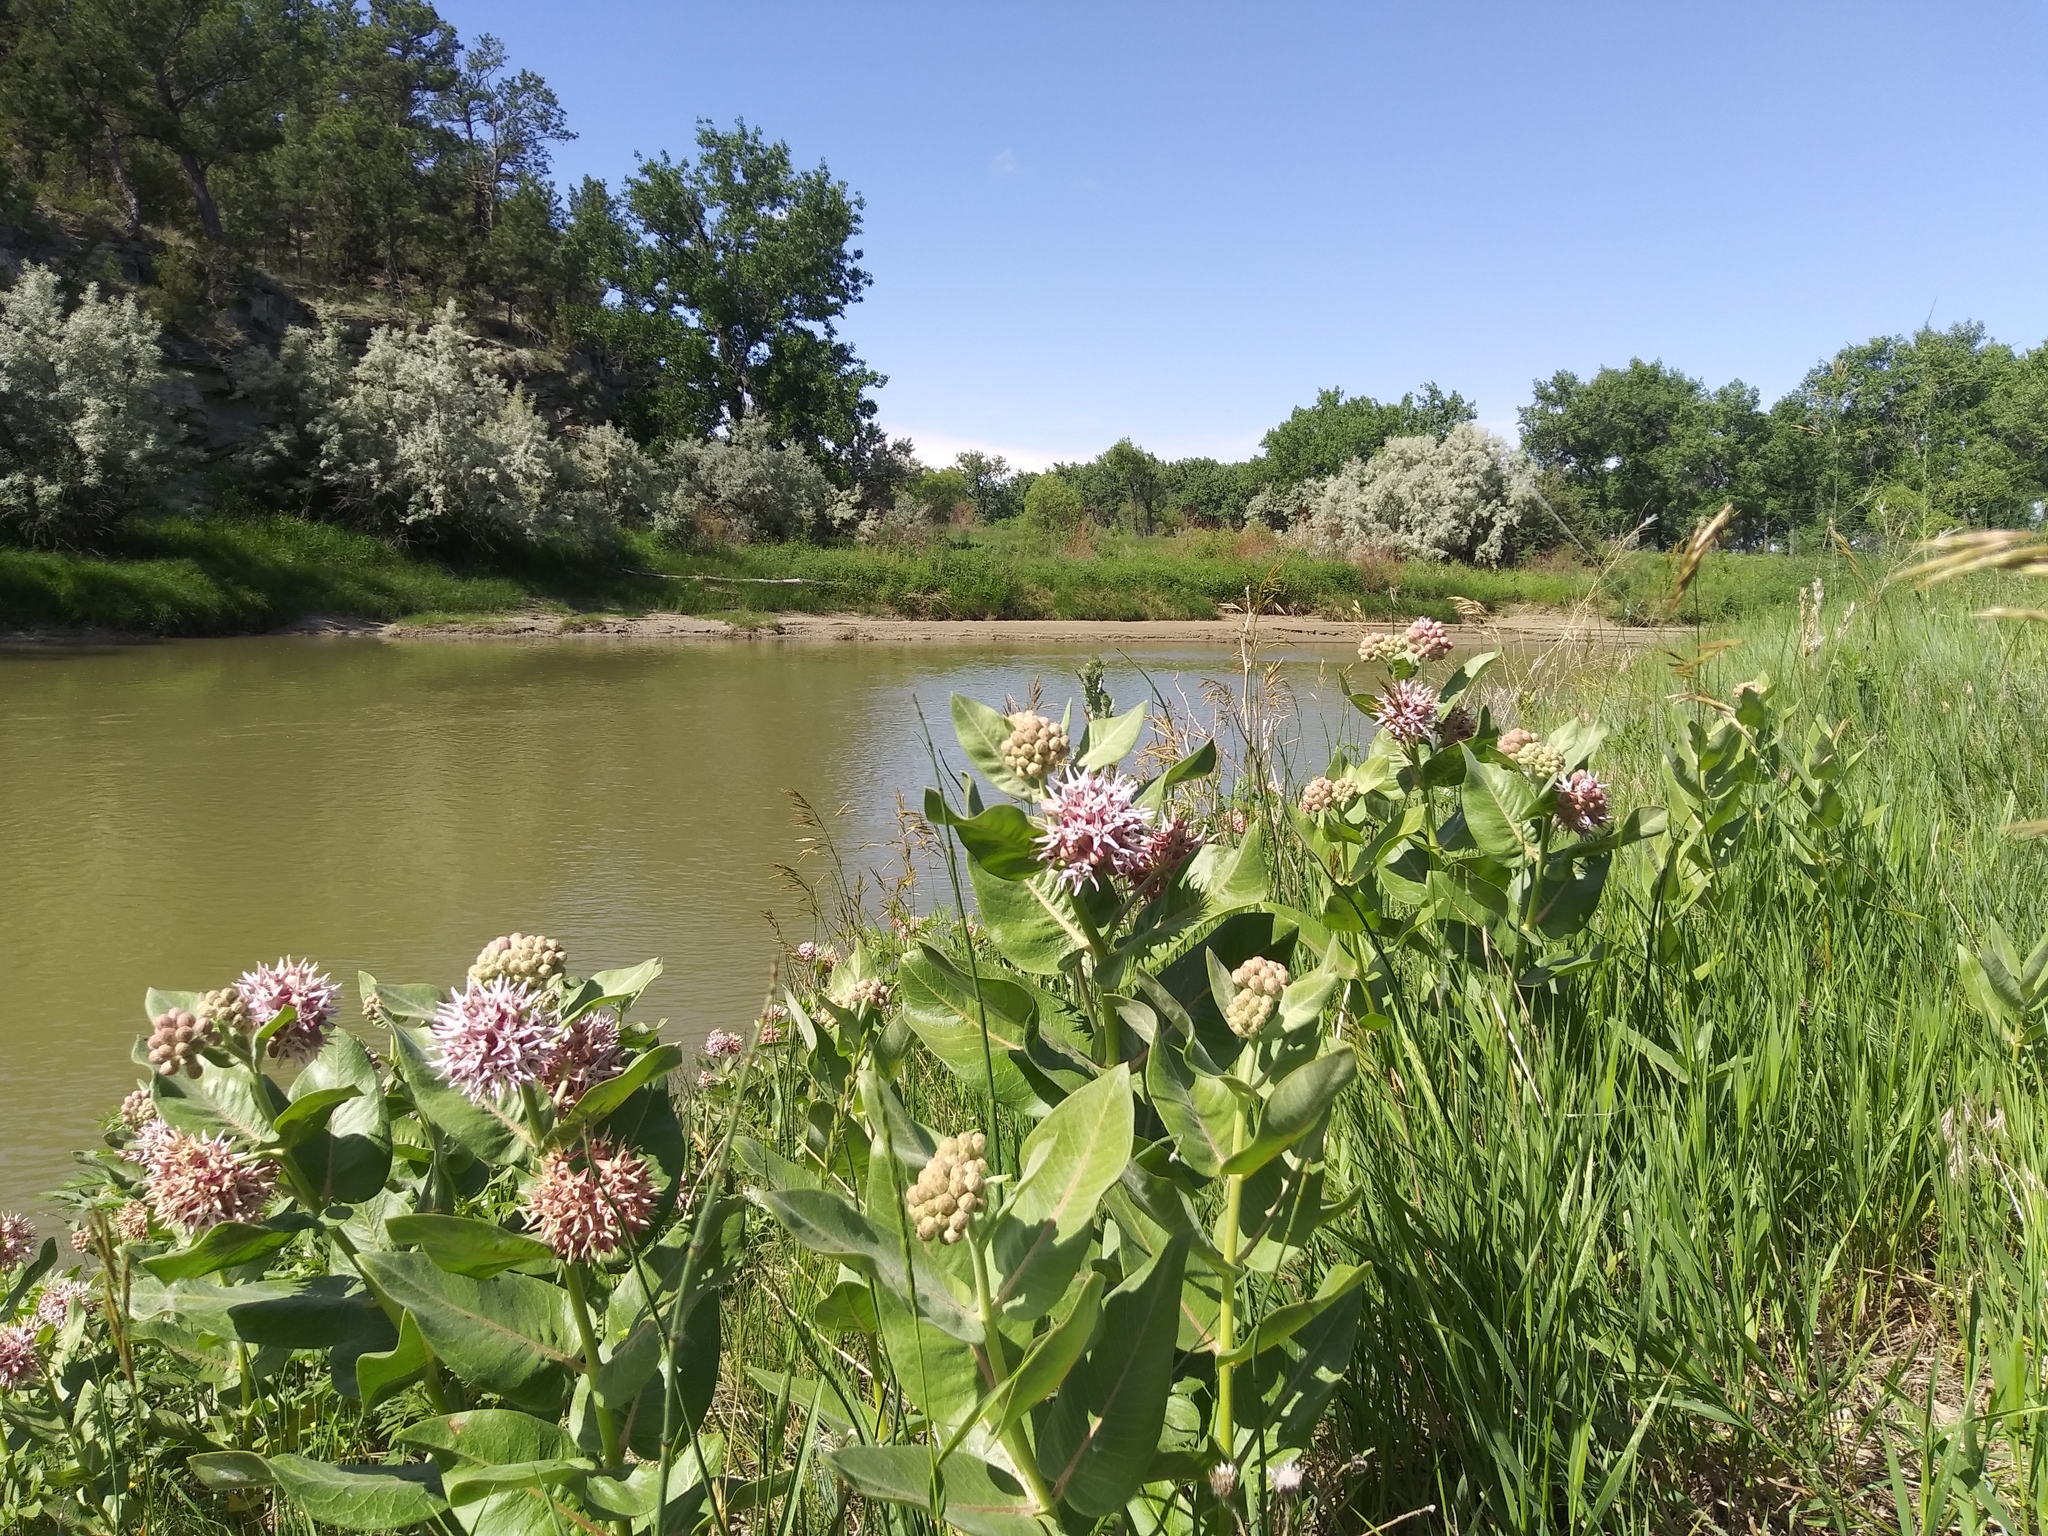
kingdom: Plantae
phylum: Tracheophyta
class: Magnoliopsida
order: Gentianales
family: Apocynaceae
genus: Asclepias
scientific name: Asclepias speciosa
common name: Showy milkweed
